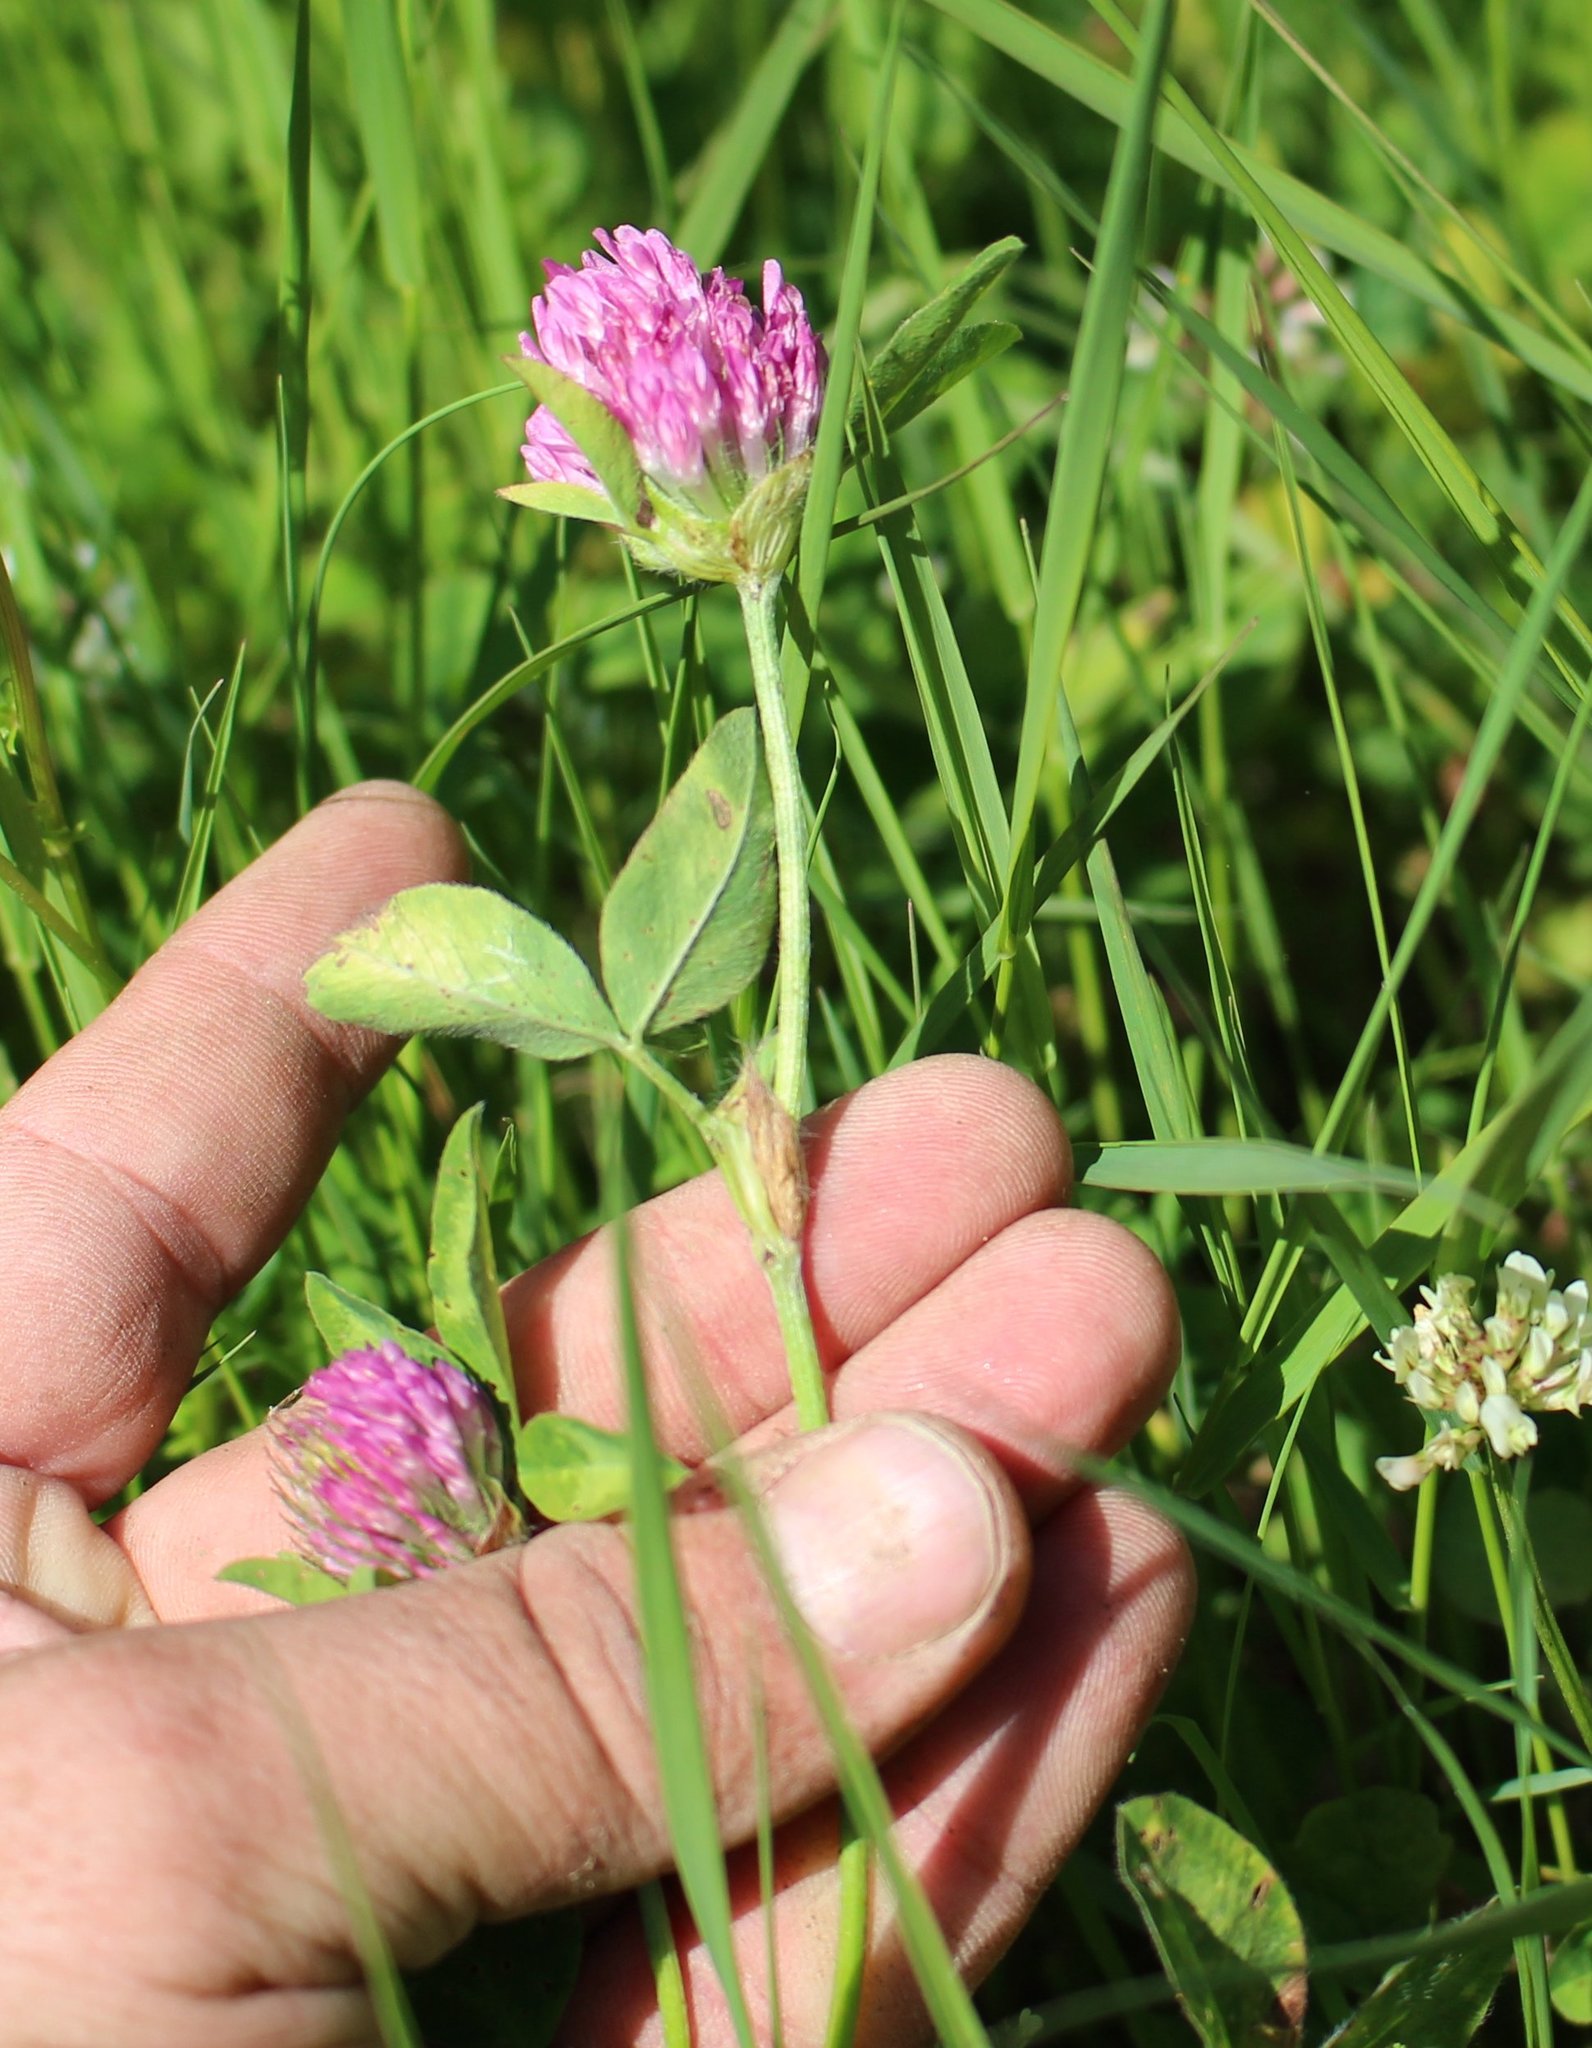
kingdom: Plantae
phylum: Tracheophyta
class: Magnoliopsida
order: Fabales
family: Fabaceae
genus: Trifolium
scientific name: Trifolium pratense
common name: Red clover
